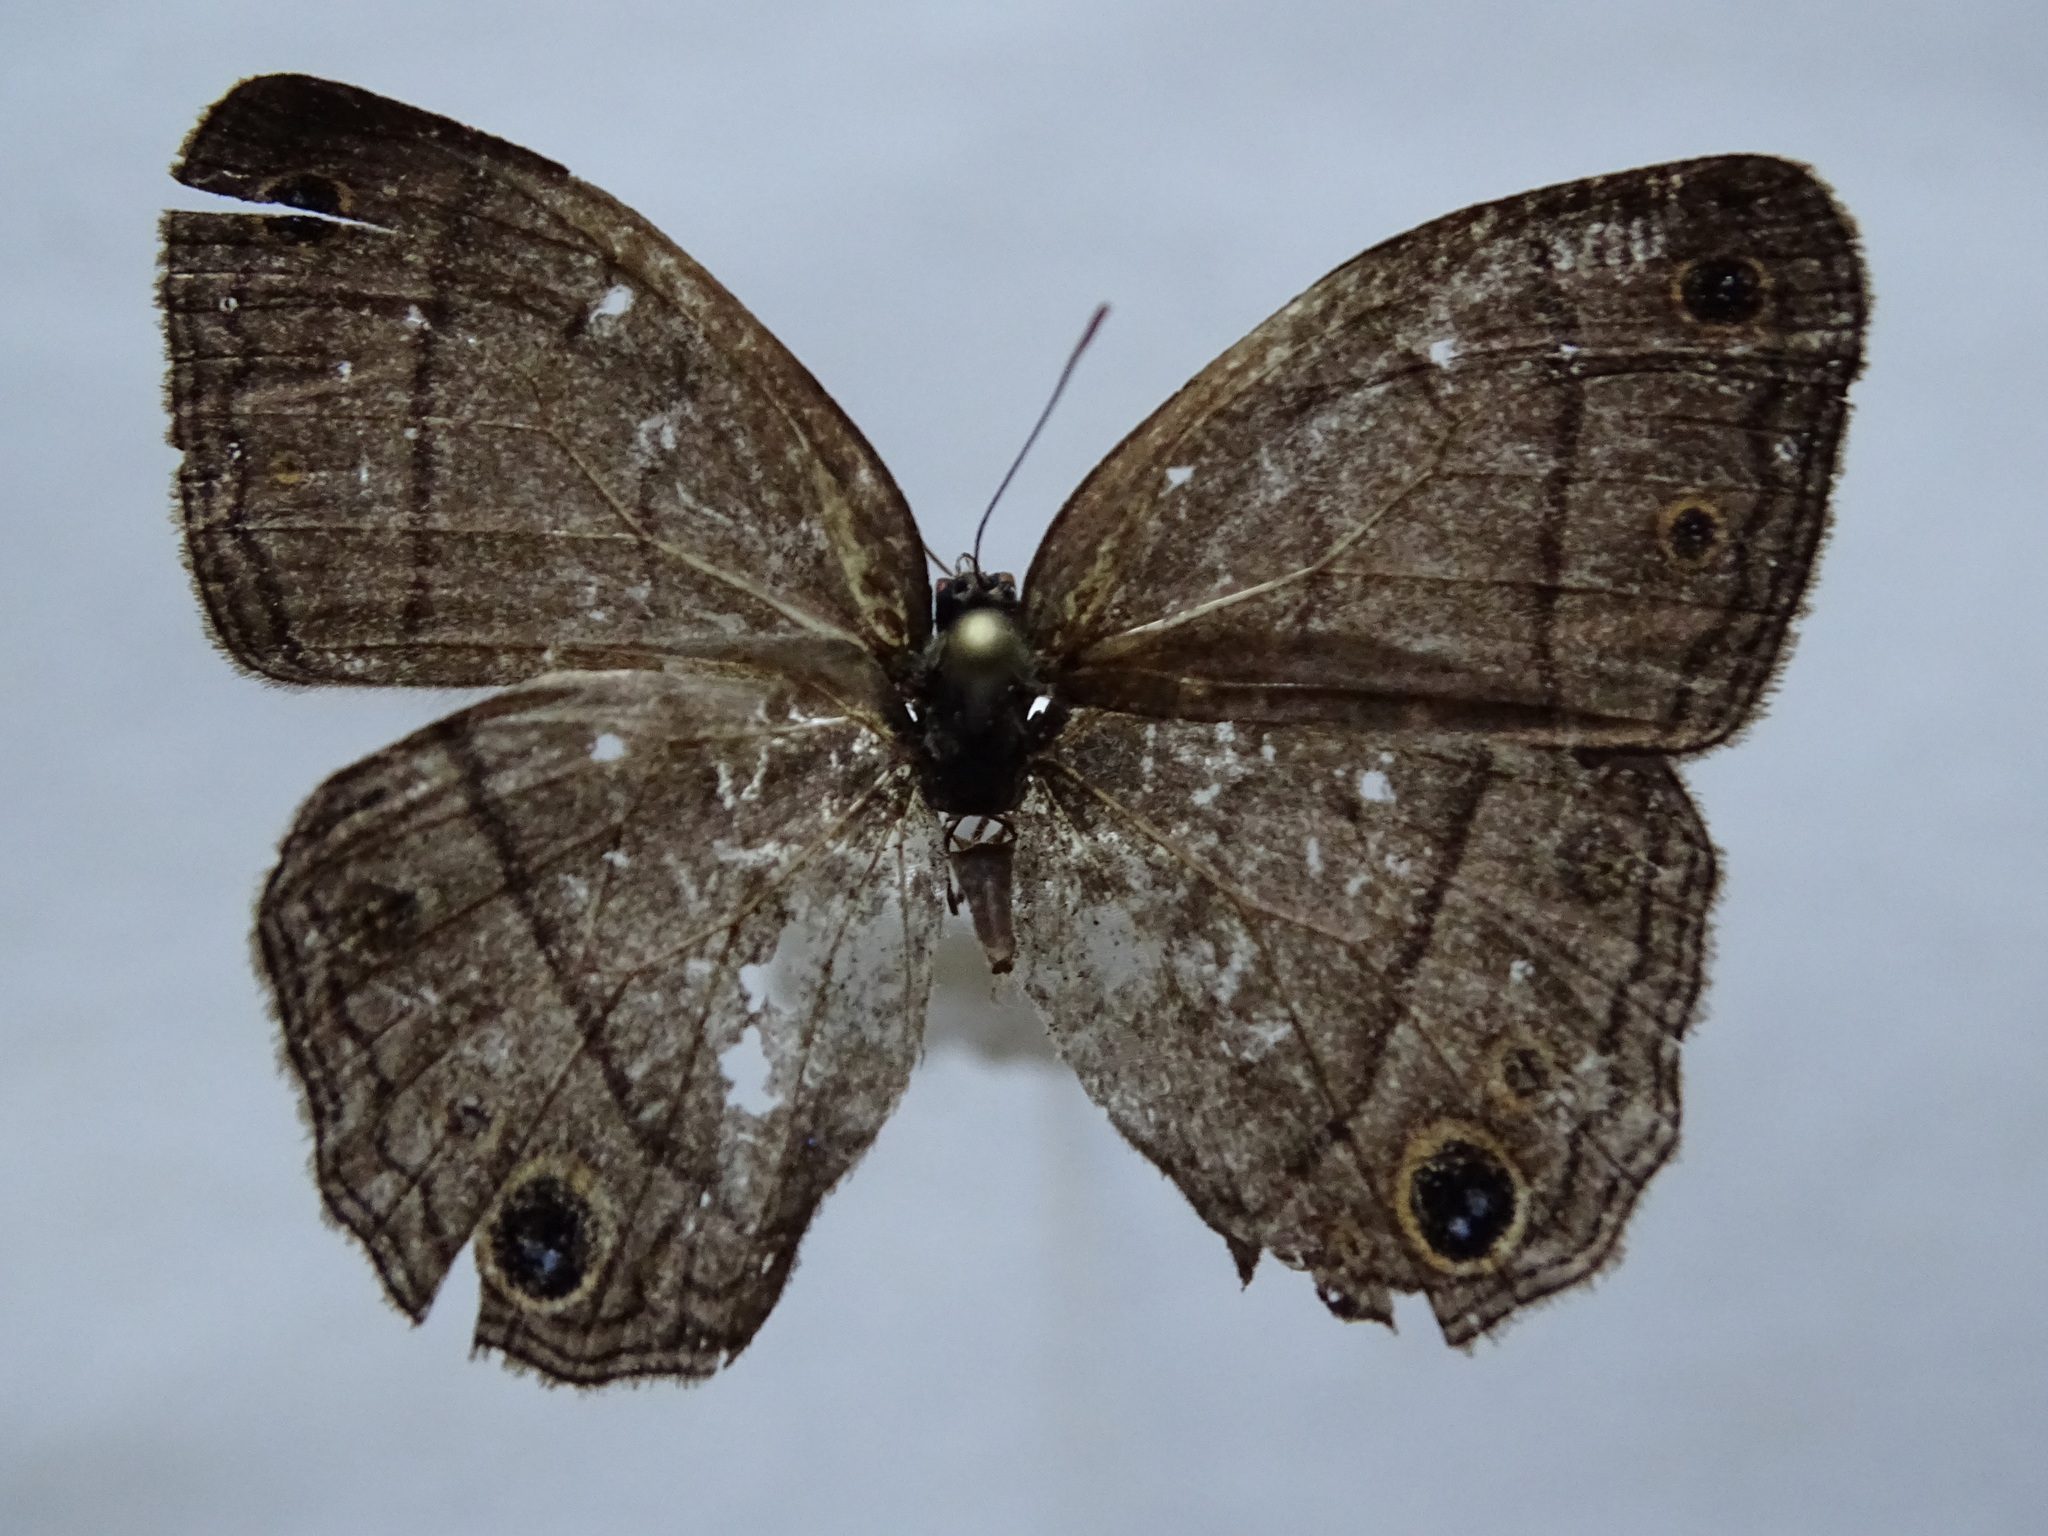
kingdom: Animalia
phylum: Arthropoda
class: Insecta
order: Lepidoptera
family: Nymphalidae
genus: Euptychia
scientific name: Euptychia Cissia pompilia
